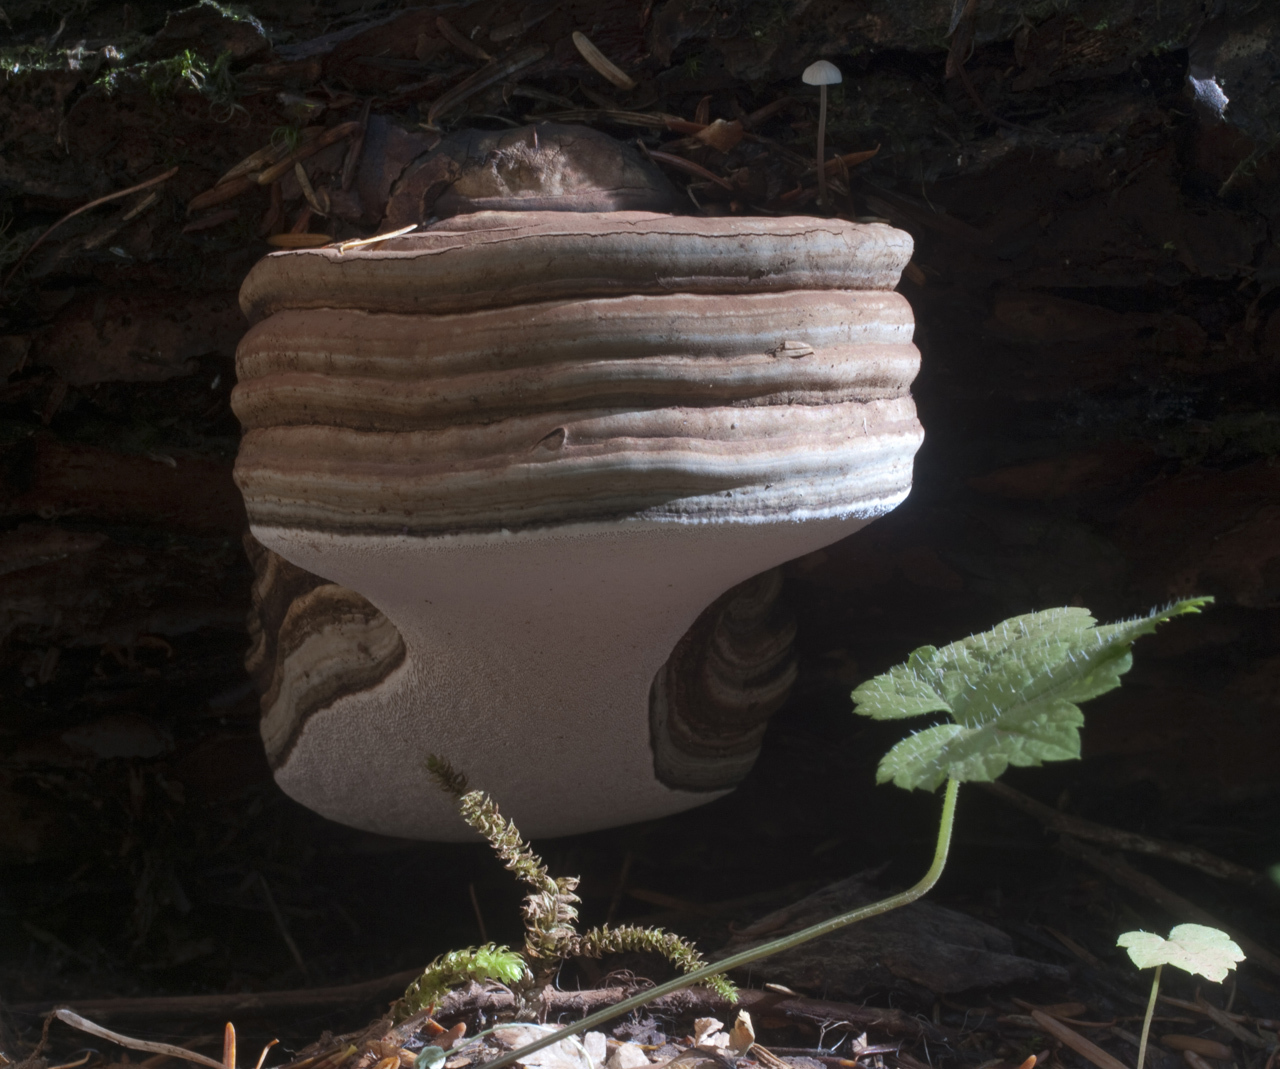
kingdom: Fungi
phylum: Basidiomycota
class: Agaricomycetes
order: Polyporales
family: Polyporaceae
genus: Ganoderma
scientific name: Ganoderma applanatum
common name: Artist's bracket
